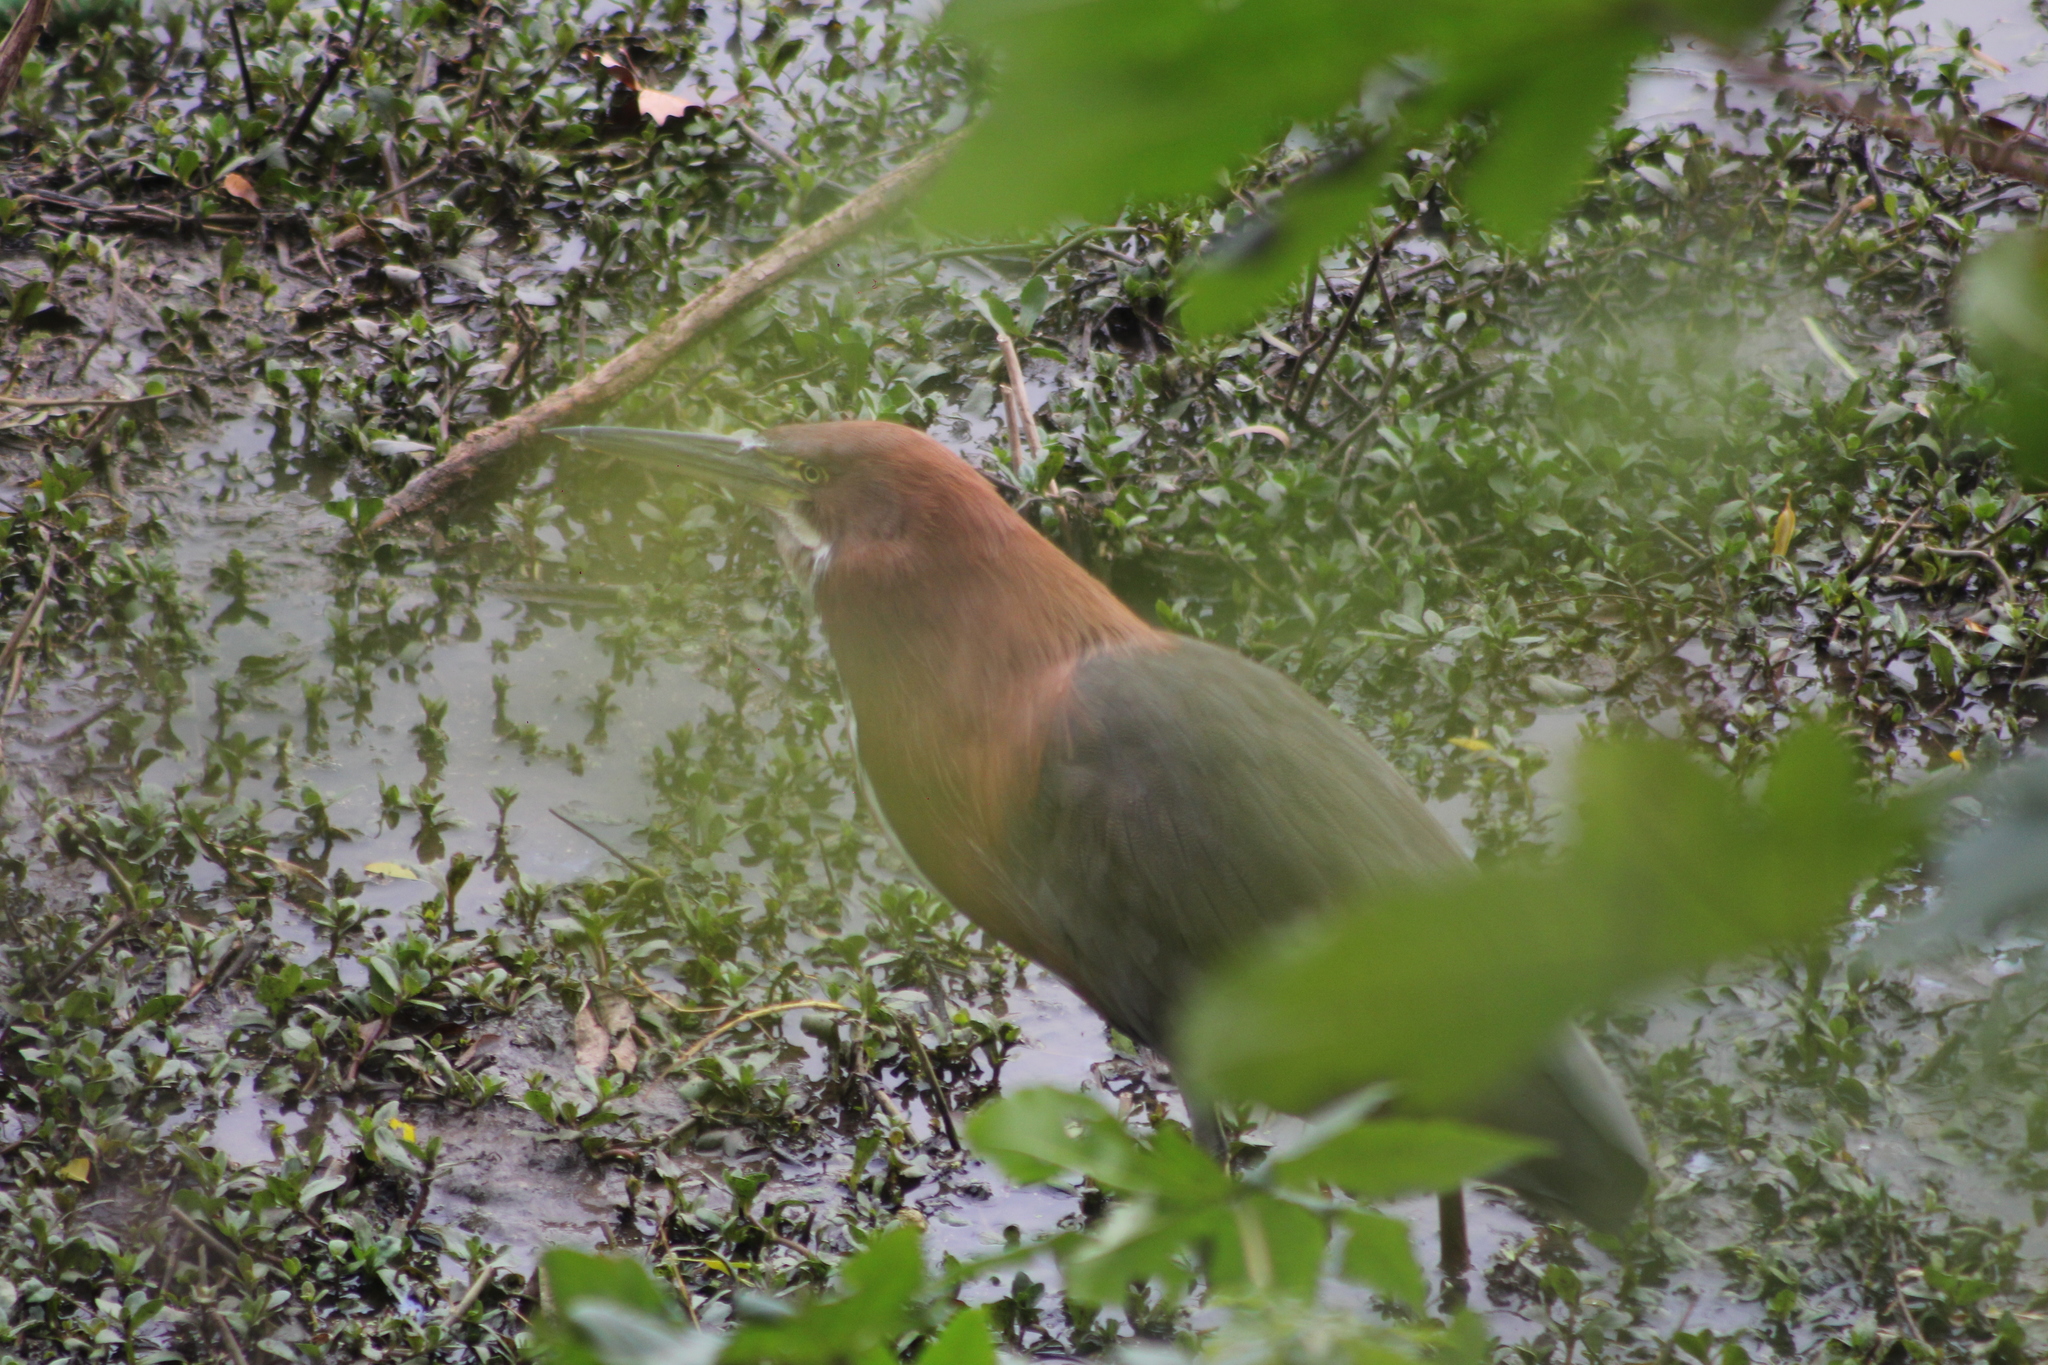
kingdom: Animalia
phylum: Chordata
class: Aves
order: Pelecaniformes
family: Ardeidae
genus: Tigrisoma
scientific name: Tigrisoma lineatum
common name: Rufescent tiger-heron
